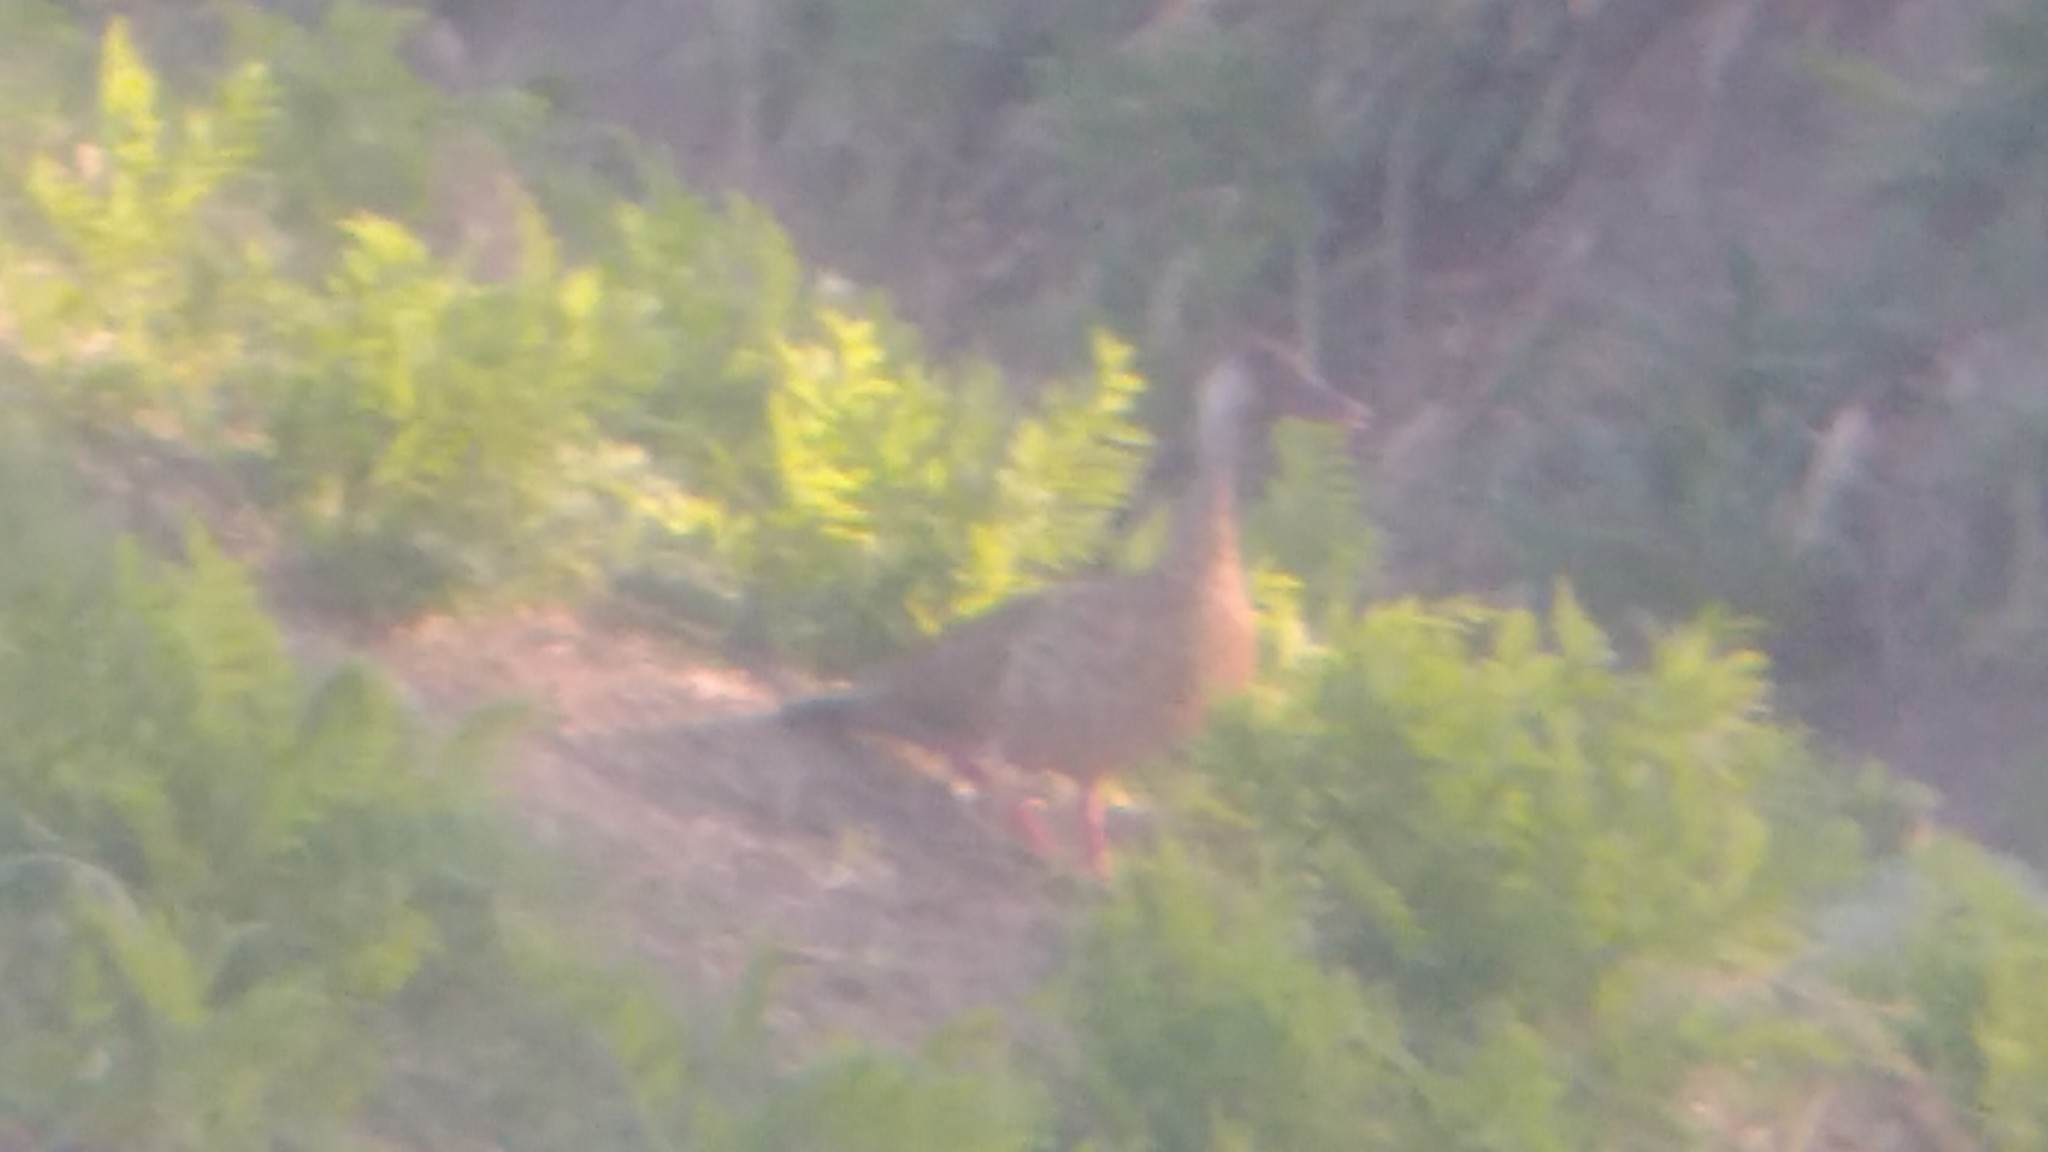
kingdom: Animalia
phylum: Chordata
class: Aves
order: Anseriformes
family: Anatidae
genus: Amazonetta
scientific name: Amazonetta brasiliensis
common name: Brazilian teal
